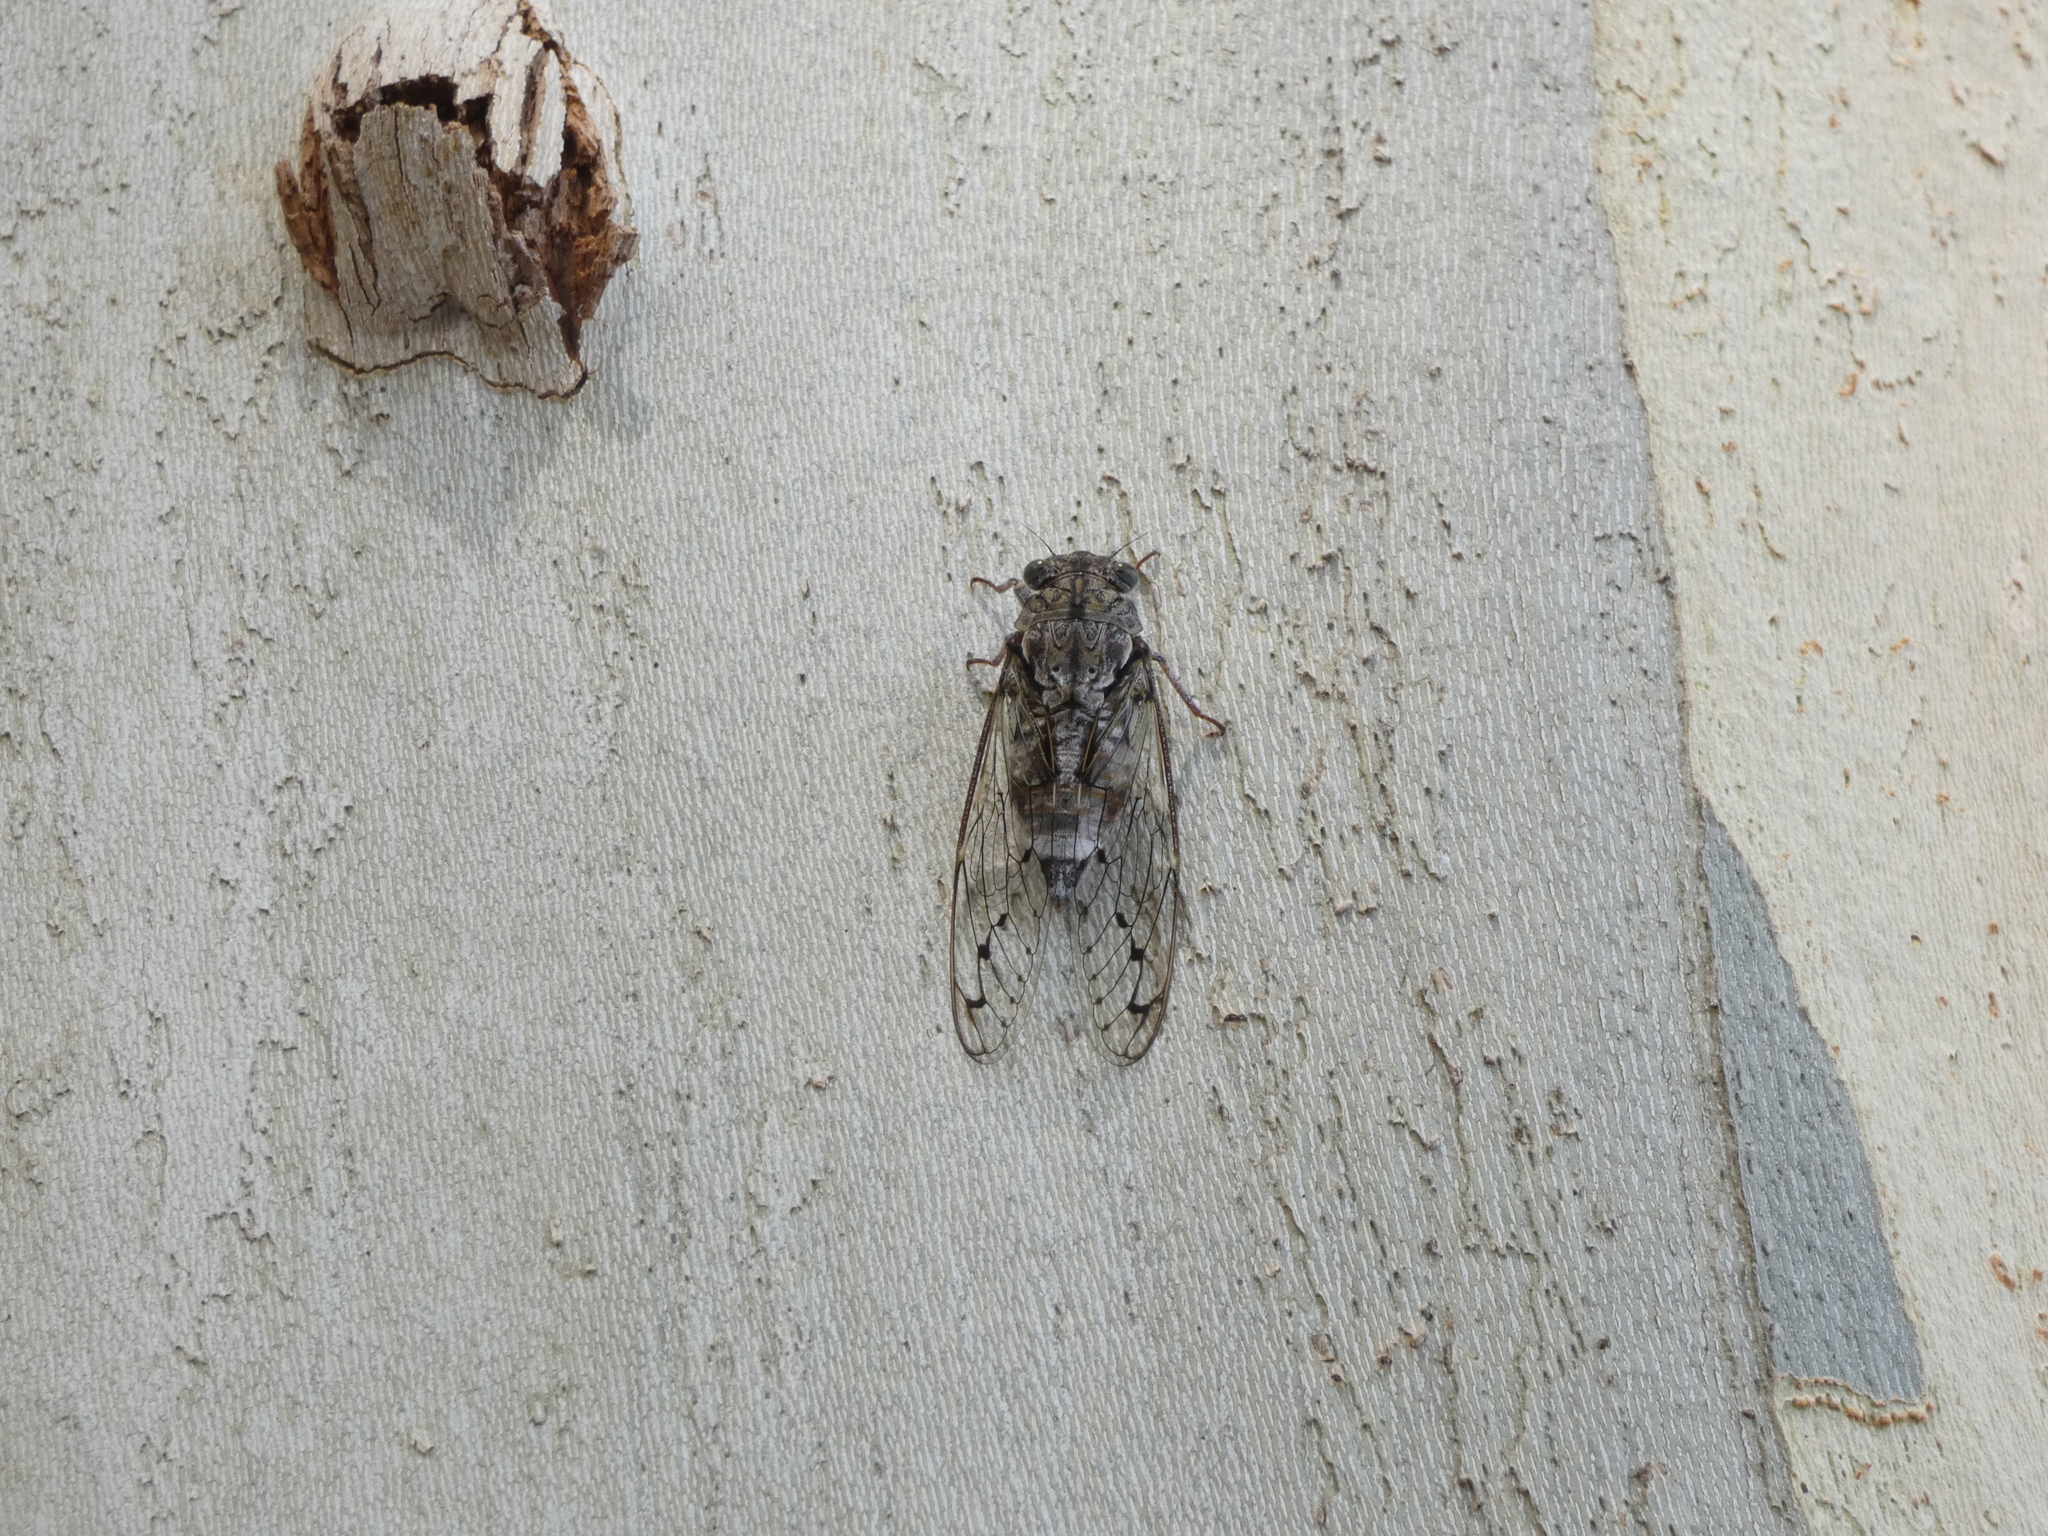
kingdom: Animalia
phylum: Arthropoda
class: Insecta
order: Hemiptera
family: Cicadidae
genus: Cicada
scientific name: Cicada orni
